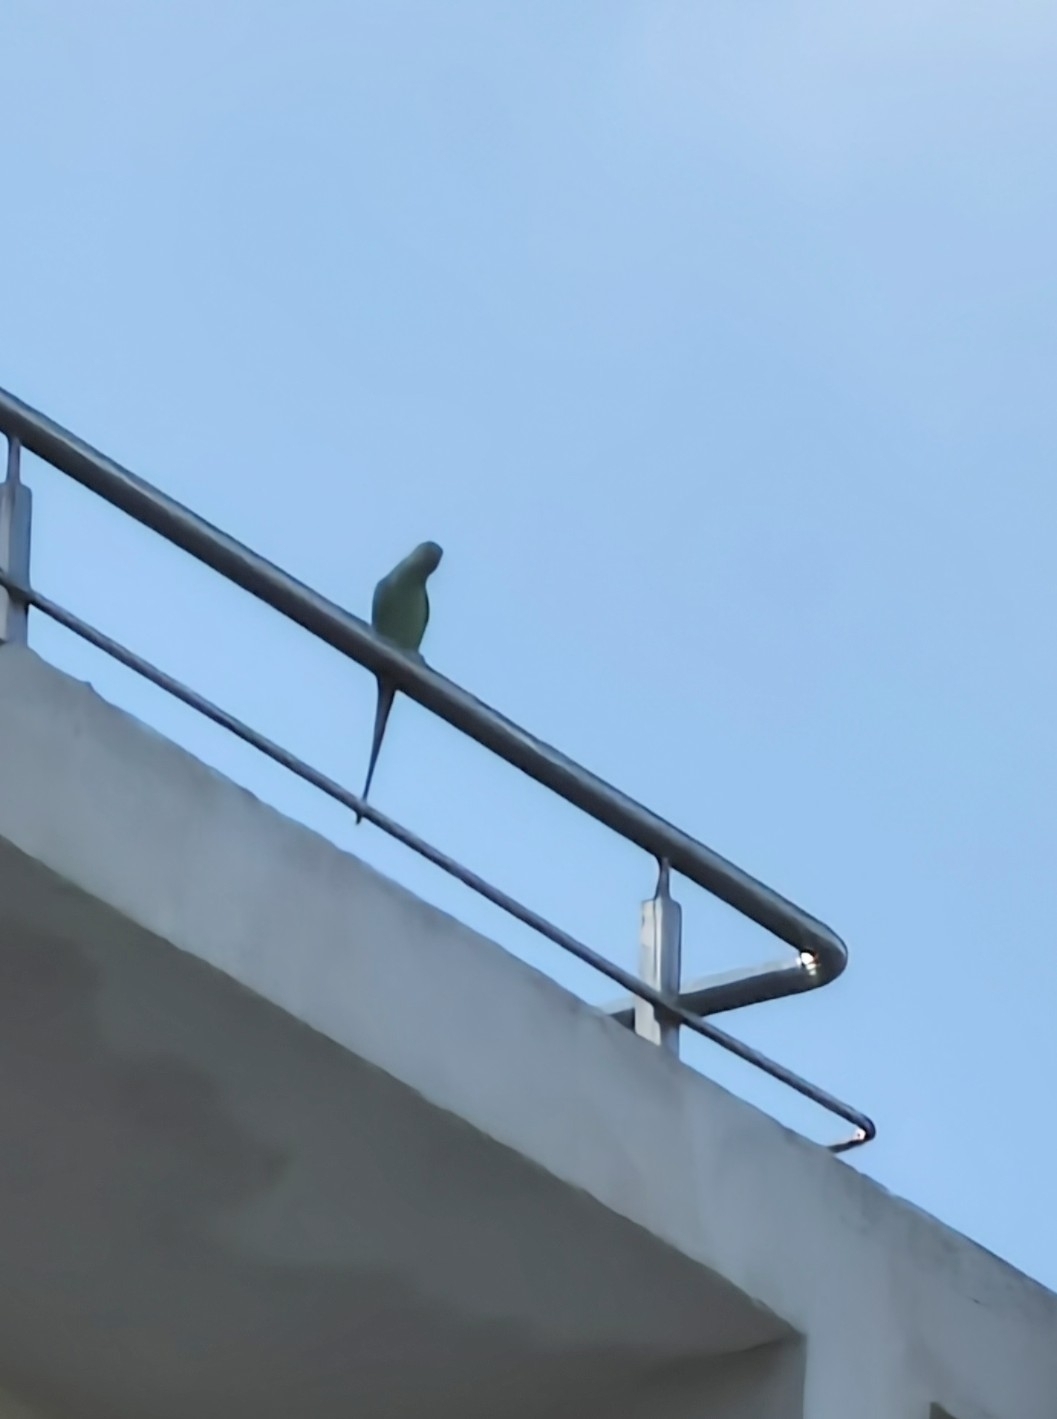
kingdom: Animalia
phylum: Chordata
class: Aves
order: Psittaciformes
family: Psittacidae
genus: Psittacula
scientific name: Psittacula krameri
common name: Rose-ringed parakeet
